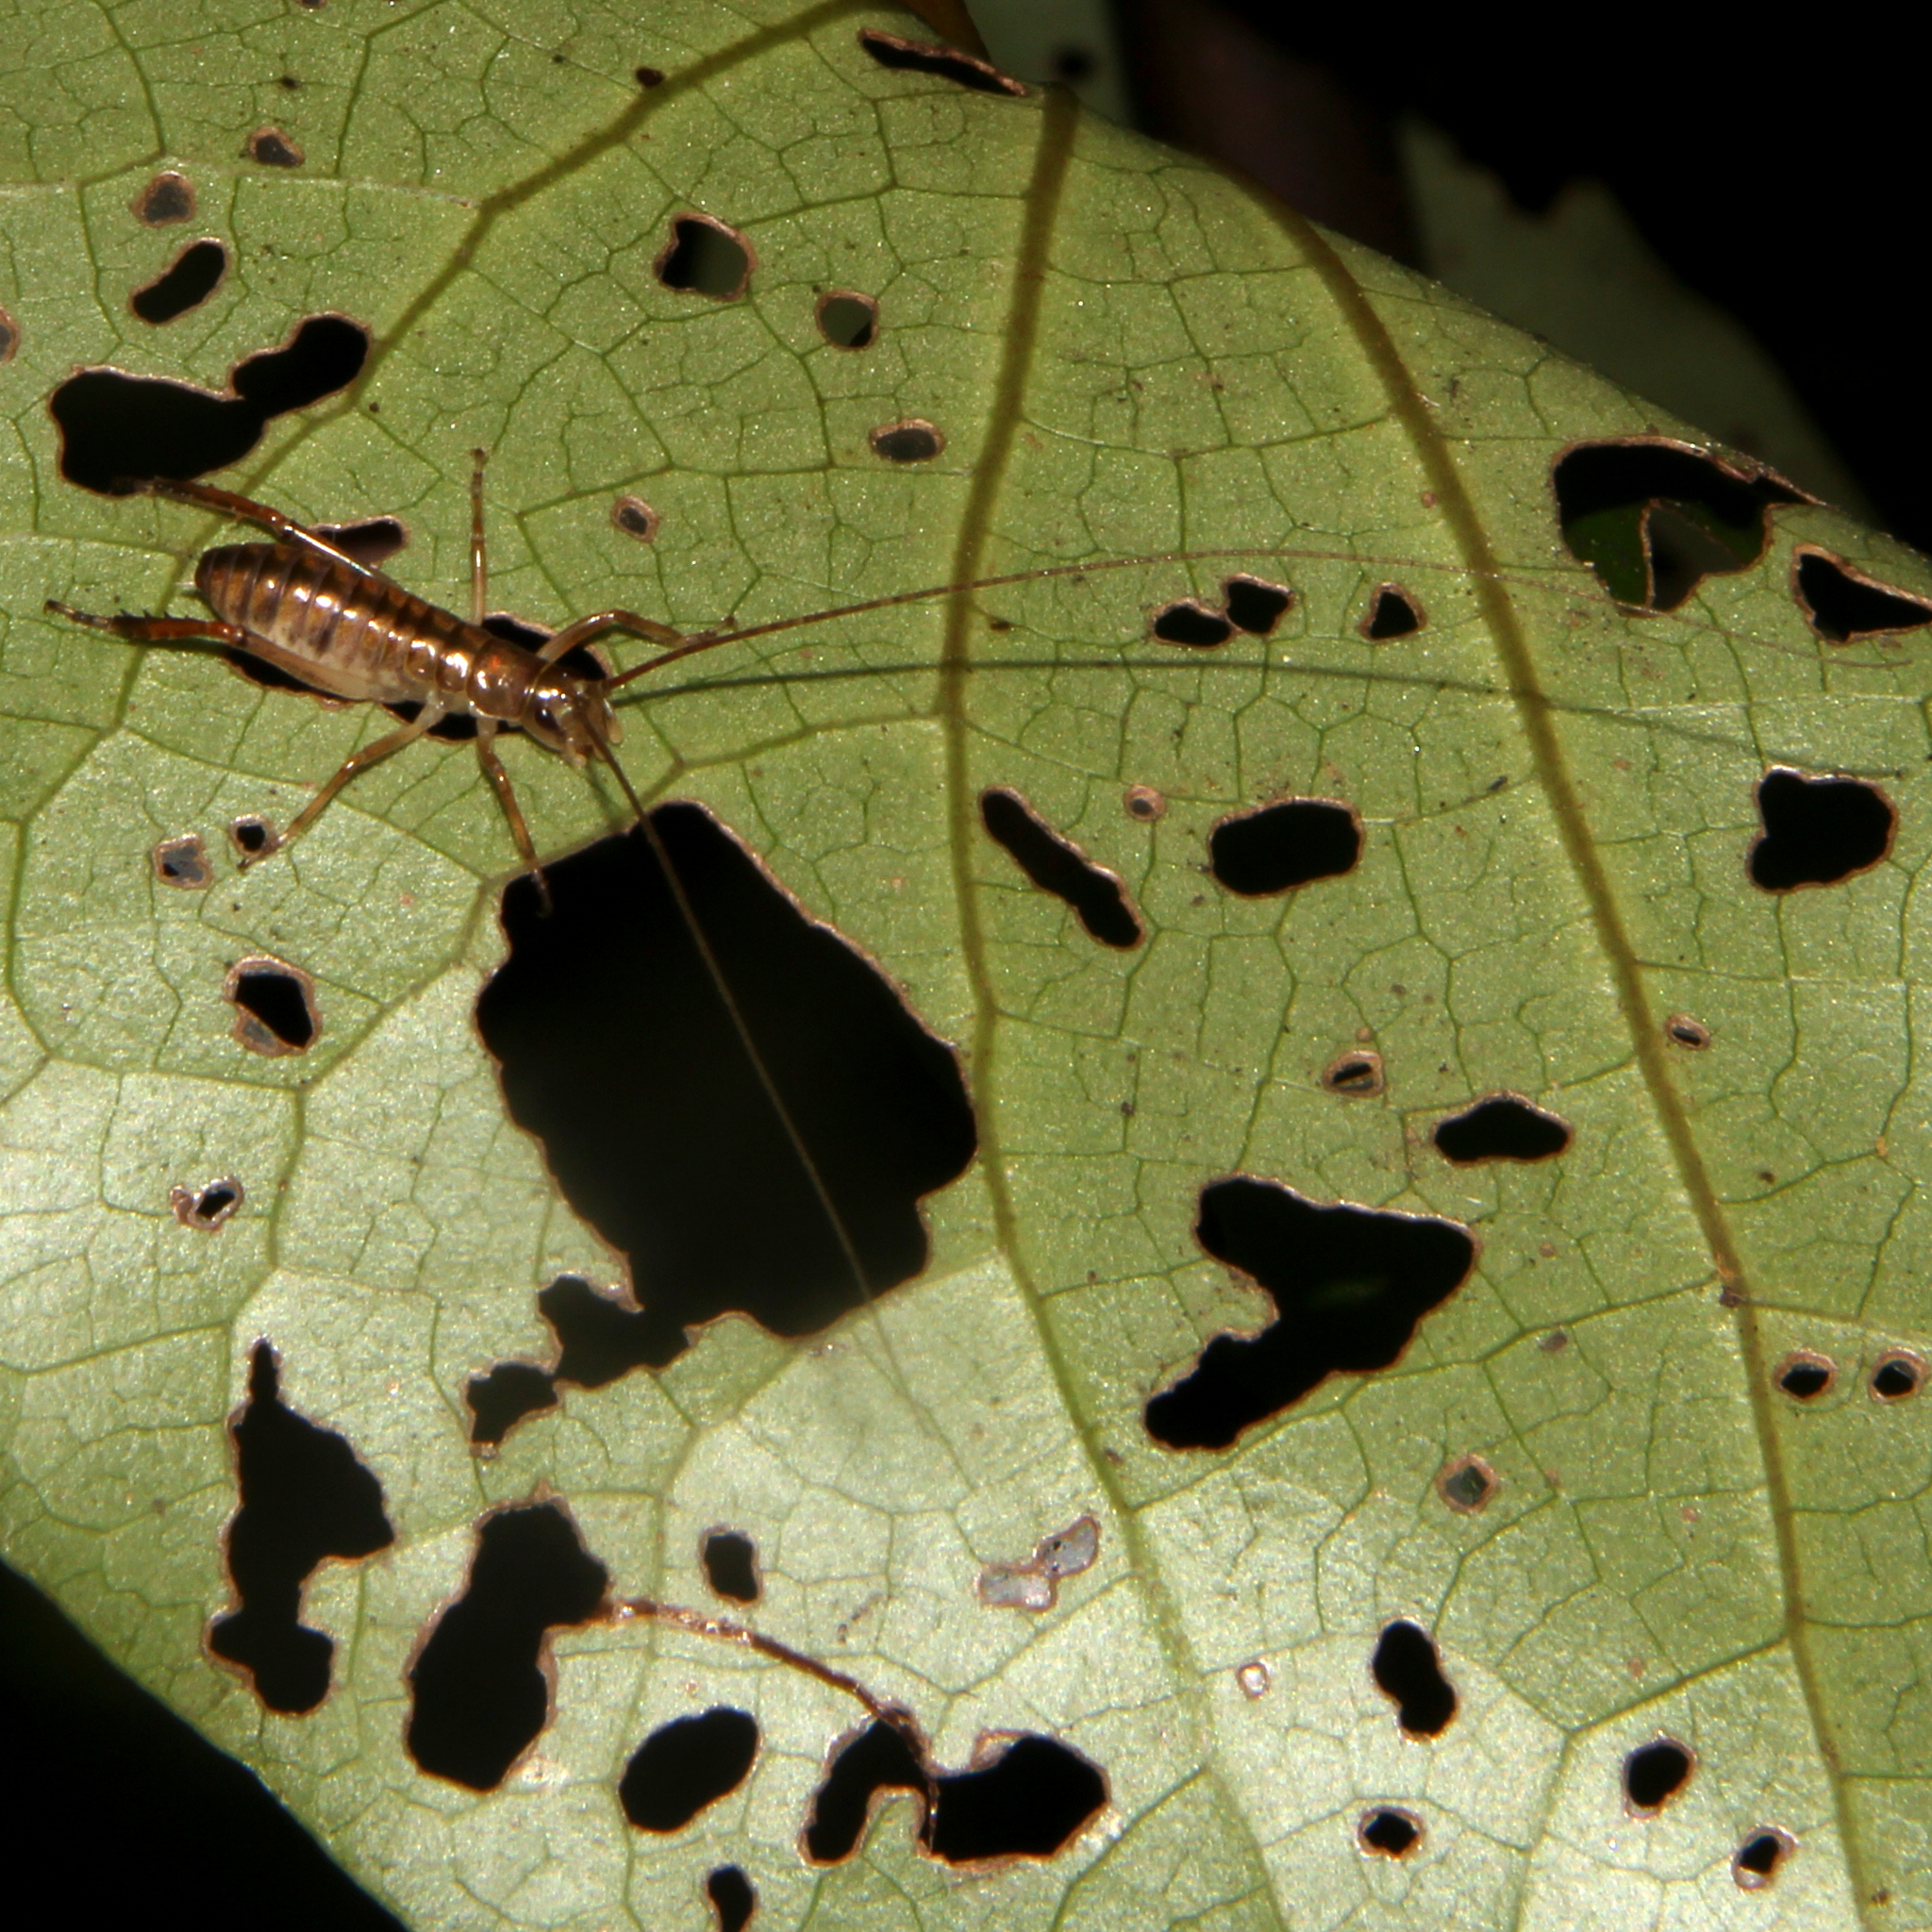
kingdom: Animalia
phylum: Arthropoda
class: Insecta
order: Orthoptera
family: Anostostomatidae
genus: Hemideina
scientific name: Hemideina thoracica
